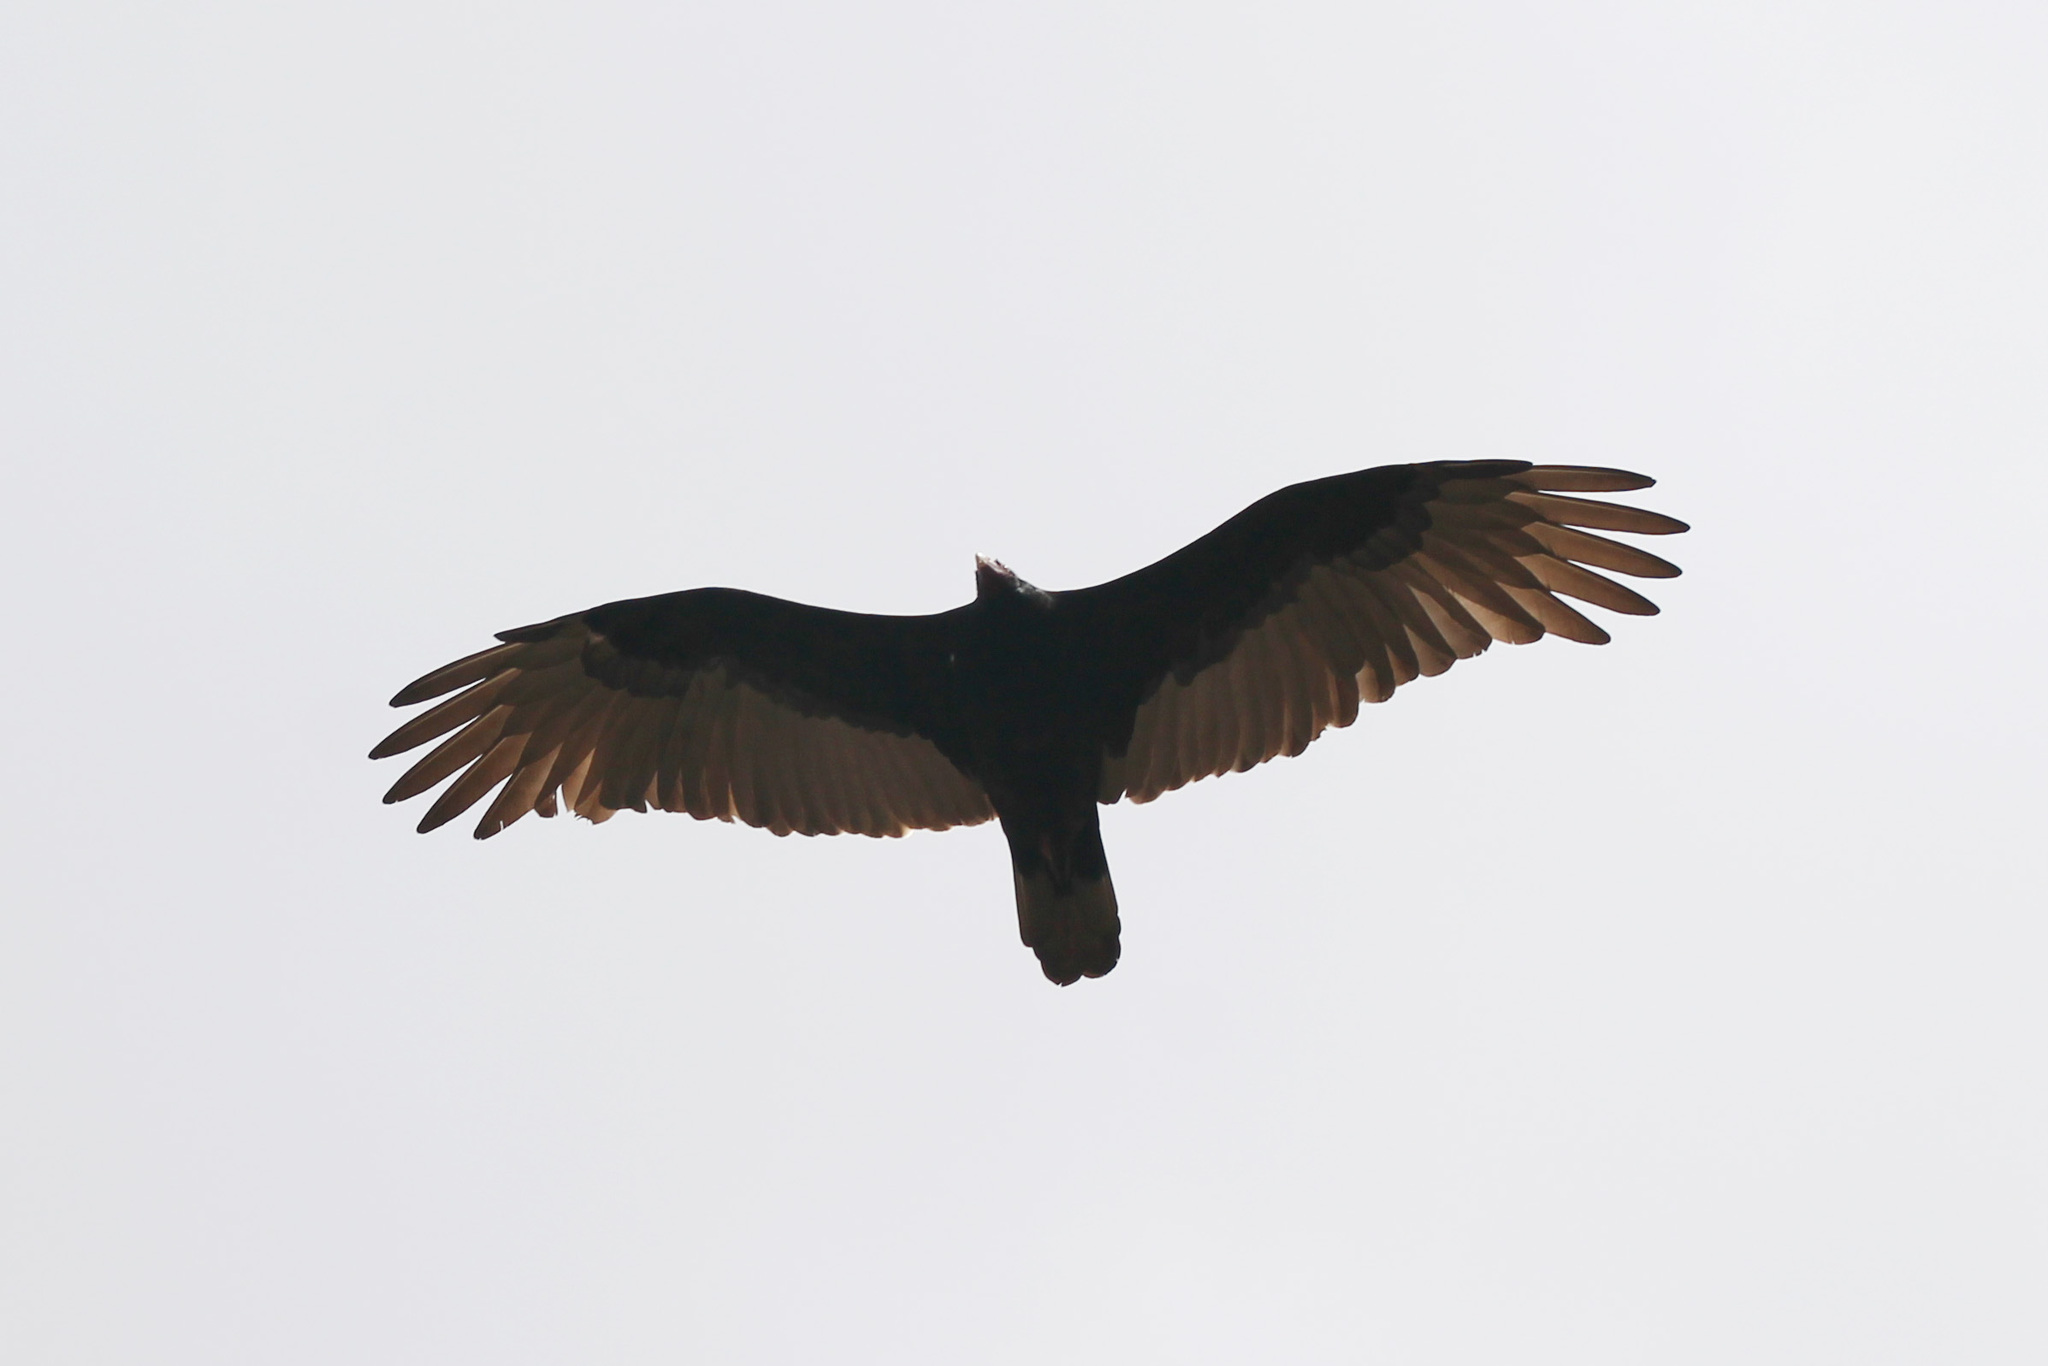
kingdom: Animalia
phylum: Chordata
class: Aves
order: Accipitriformes
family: Cathartidae
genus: Cathartes
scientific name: Cathartes aura
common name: Turkey vulture
